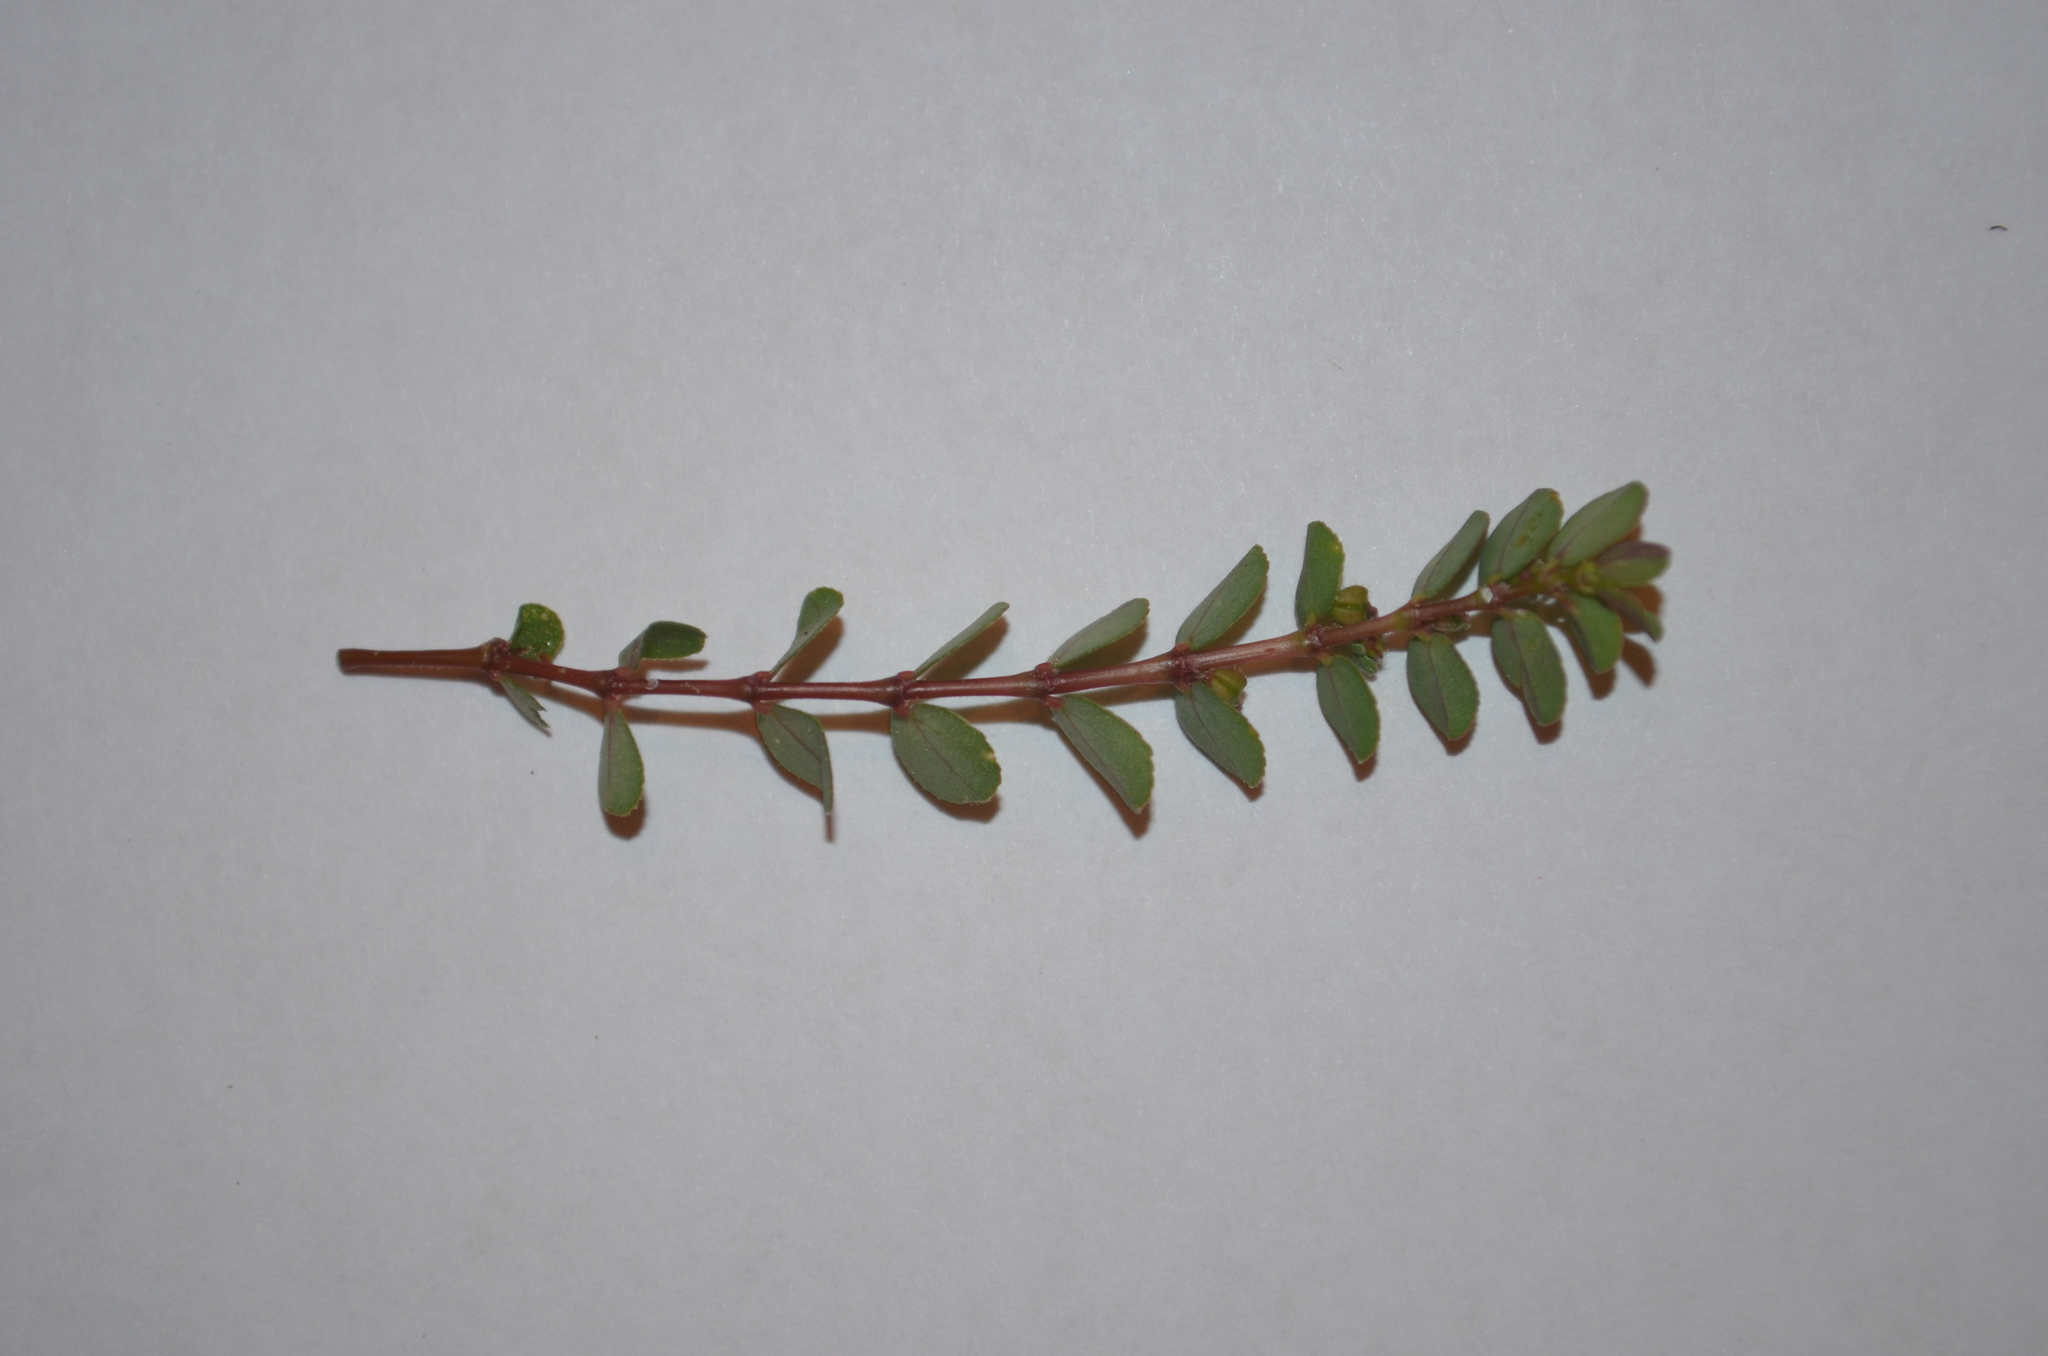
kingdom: Plantae
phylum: Tracheophyta
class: Magnoliopsida
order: Malpighiales
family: Euphorbiaceae
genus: Euphorbia
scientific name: Euphorbia prostrata
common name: Prostrate sandmat
